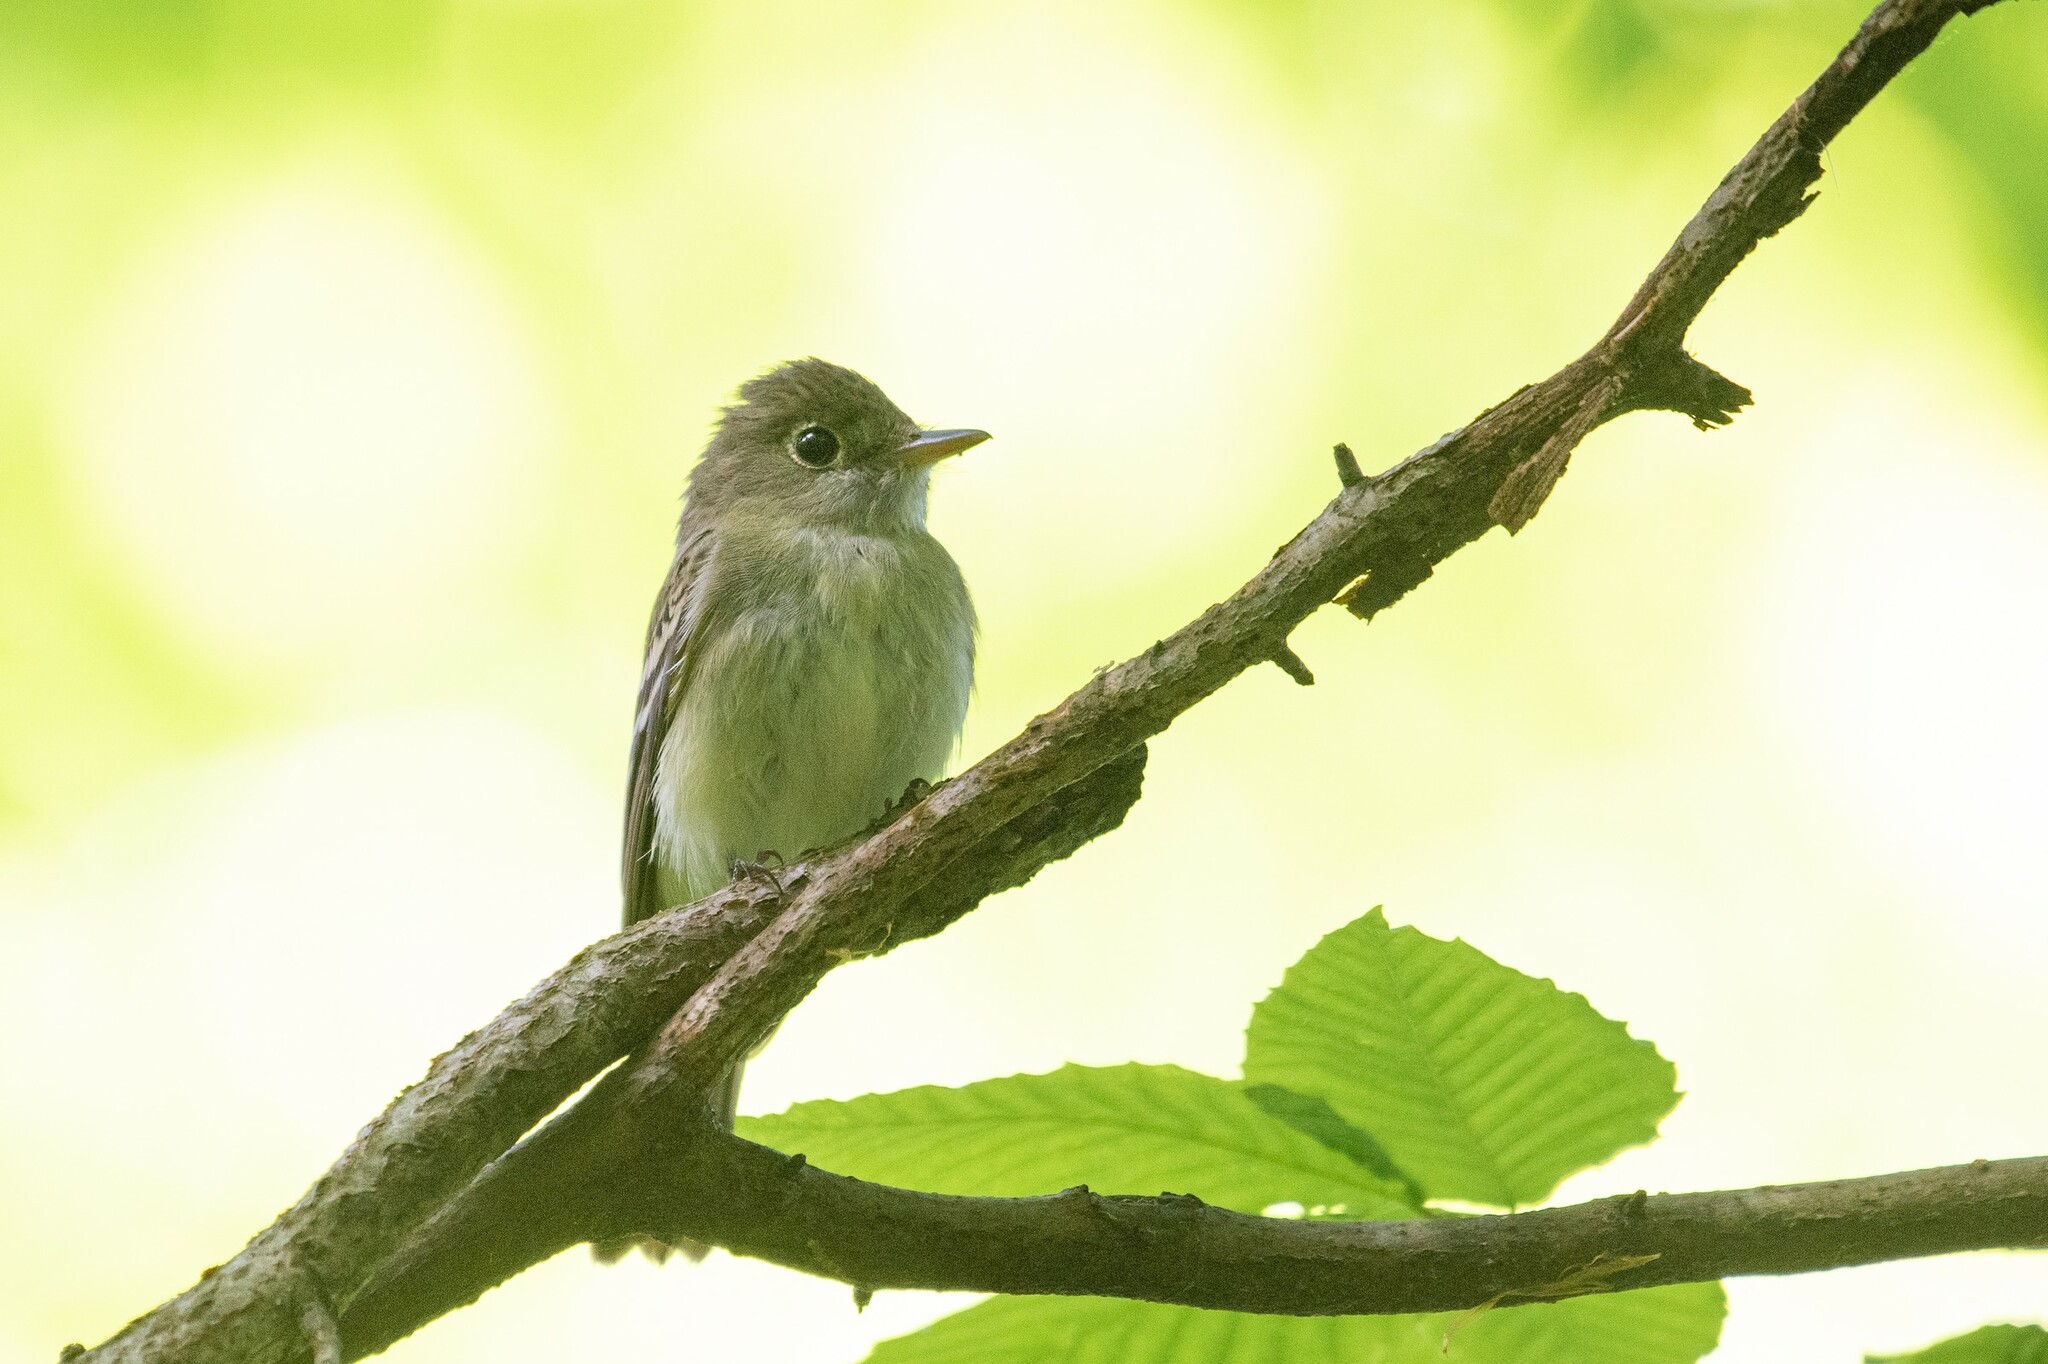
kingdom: Animalia
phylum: Chordata
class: Aves
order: Passeriformes
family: Tyrannidae
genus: Empidonax
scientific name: Empidonax virescens
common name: Acadian flycatcher
